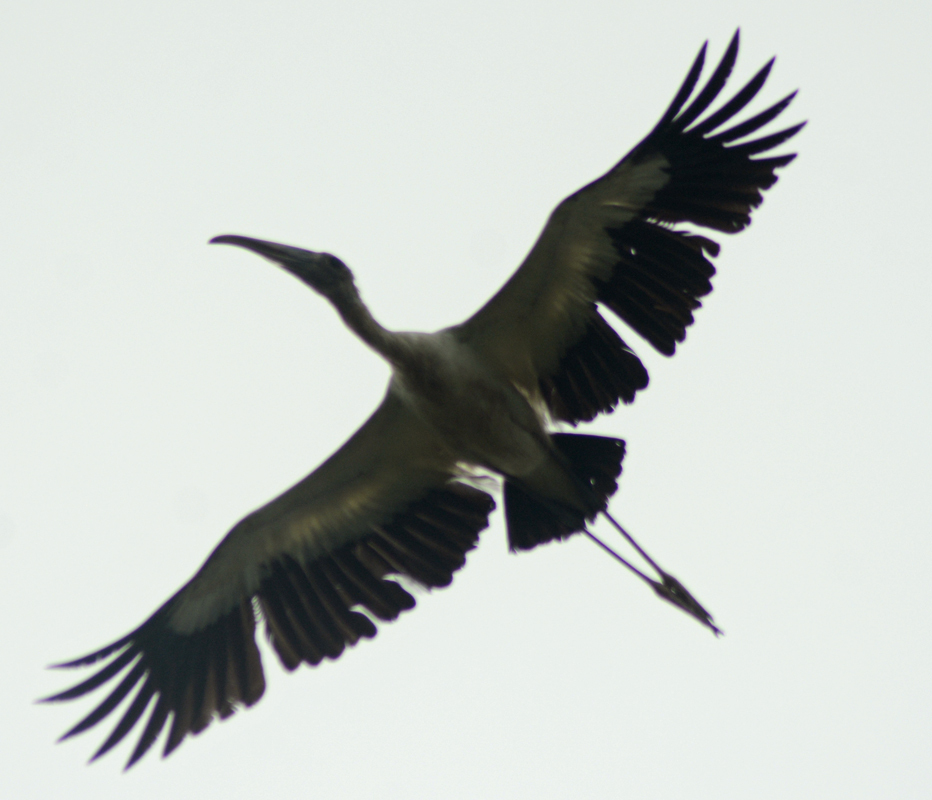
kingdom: Animalia
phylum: Chordata
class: Aves
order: Ciconiiformes
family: Ciconiidae
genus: Mycteria
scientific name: Mycteria americana
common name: Wood stork
